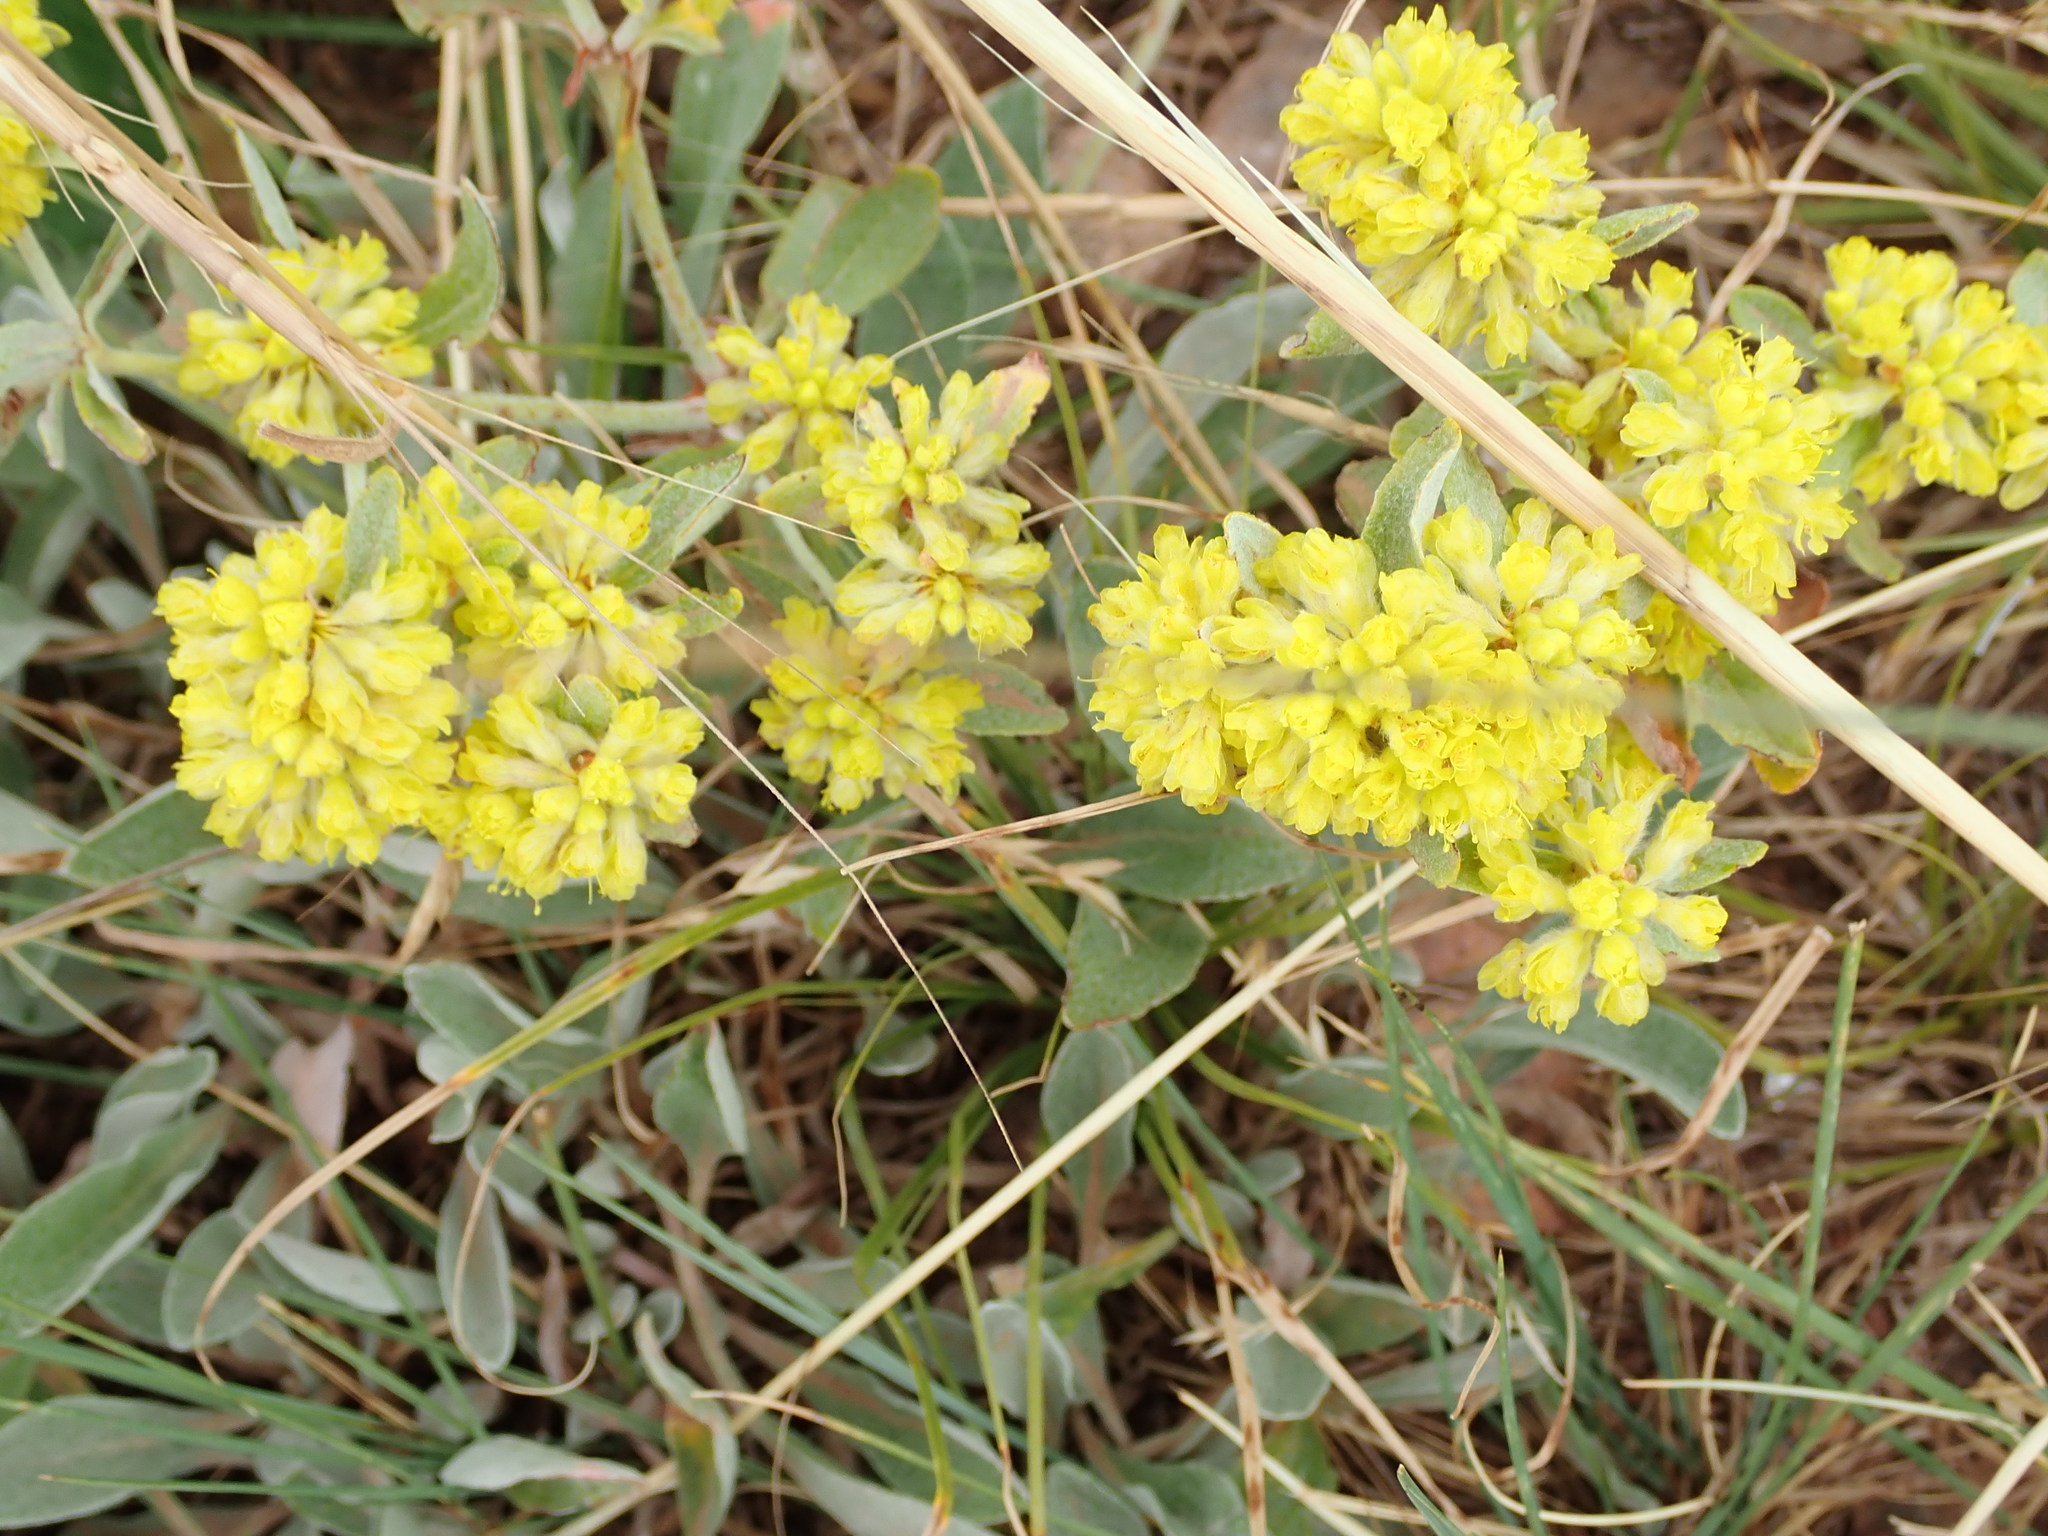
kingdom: Plantae
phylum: Tracheophyta
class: Magnoliopsida
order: Caryophyllales
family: Polygonaceae
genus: Eriogonum
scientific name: Eriogonum umbellatum
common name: Sulfur-buckwheat
